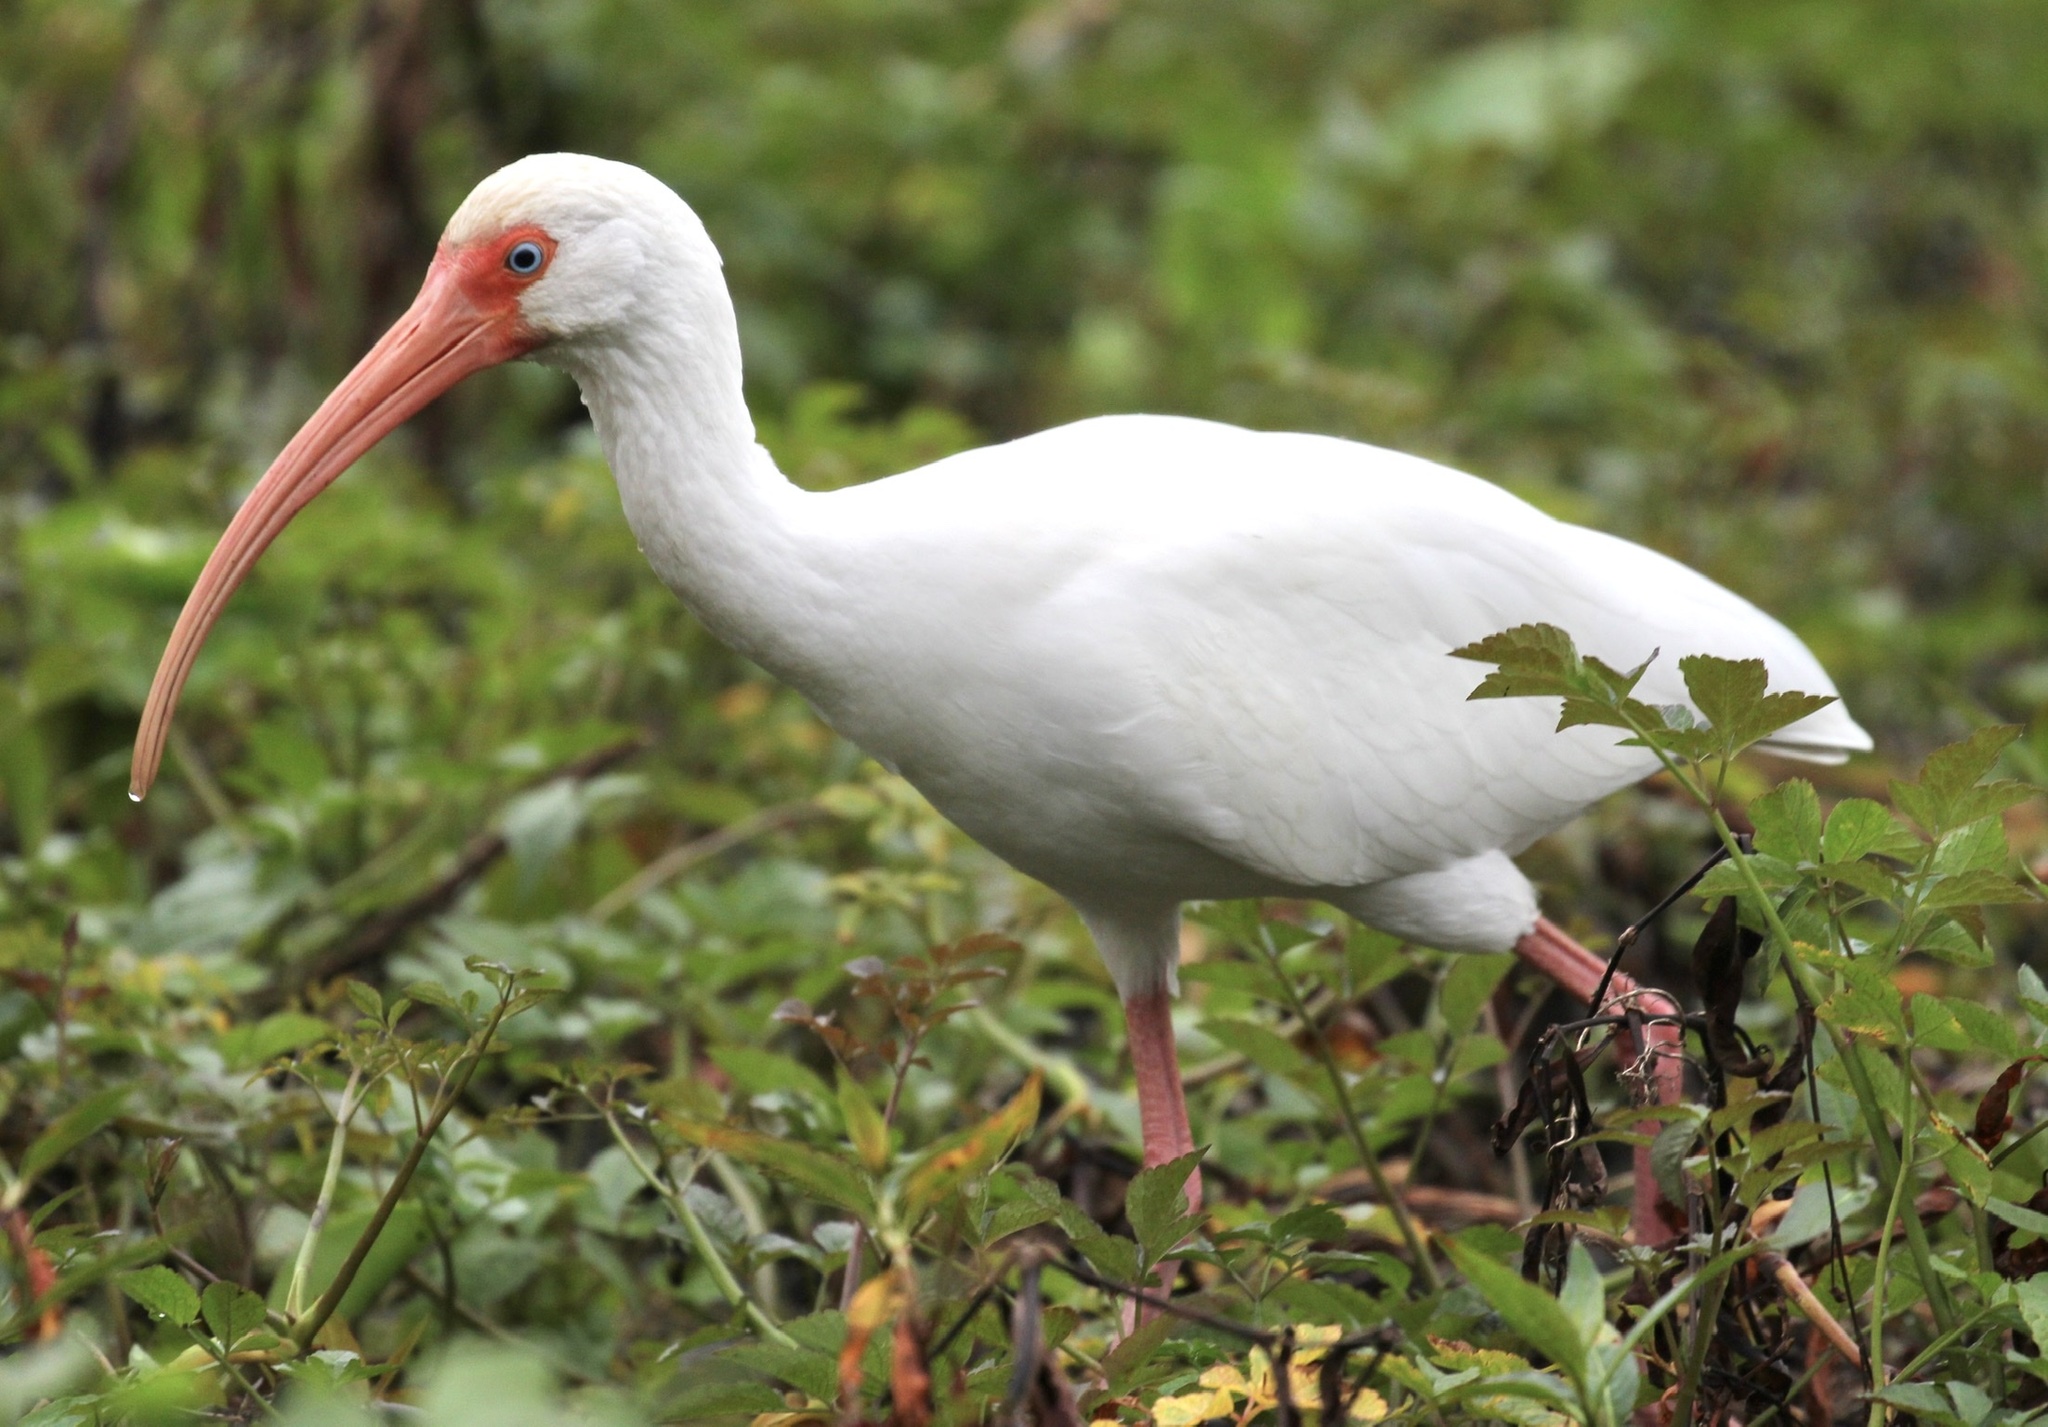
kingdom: Animalia
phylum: Chordata
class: Aves
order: Pelecaniformes
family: Threskiornithidae
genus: Eudocimus
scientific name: Eudocimus albus
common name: White ibis
